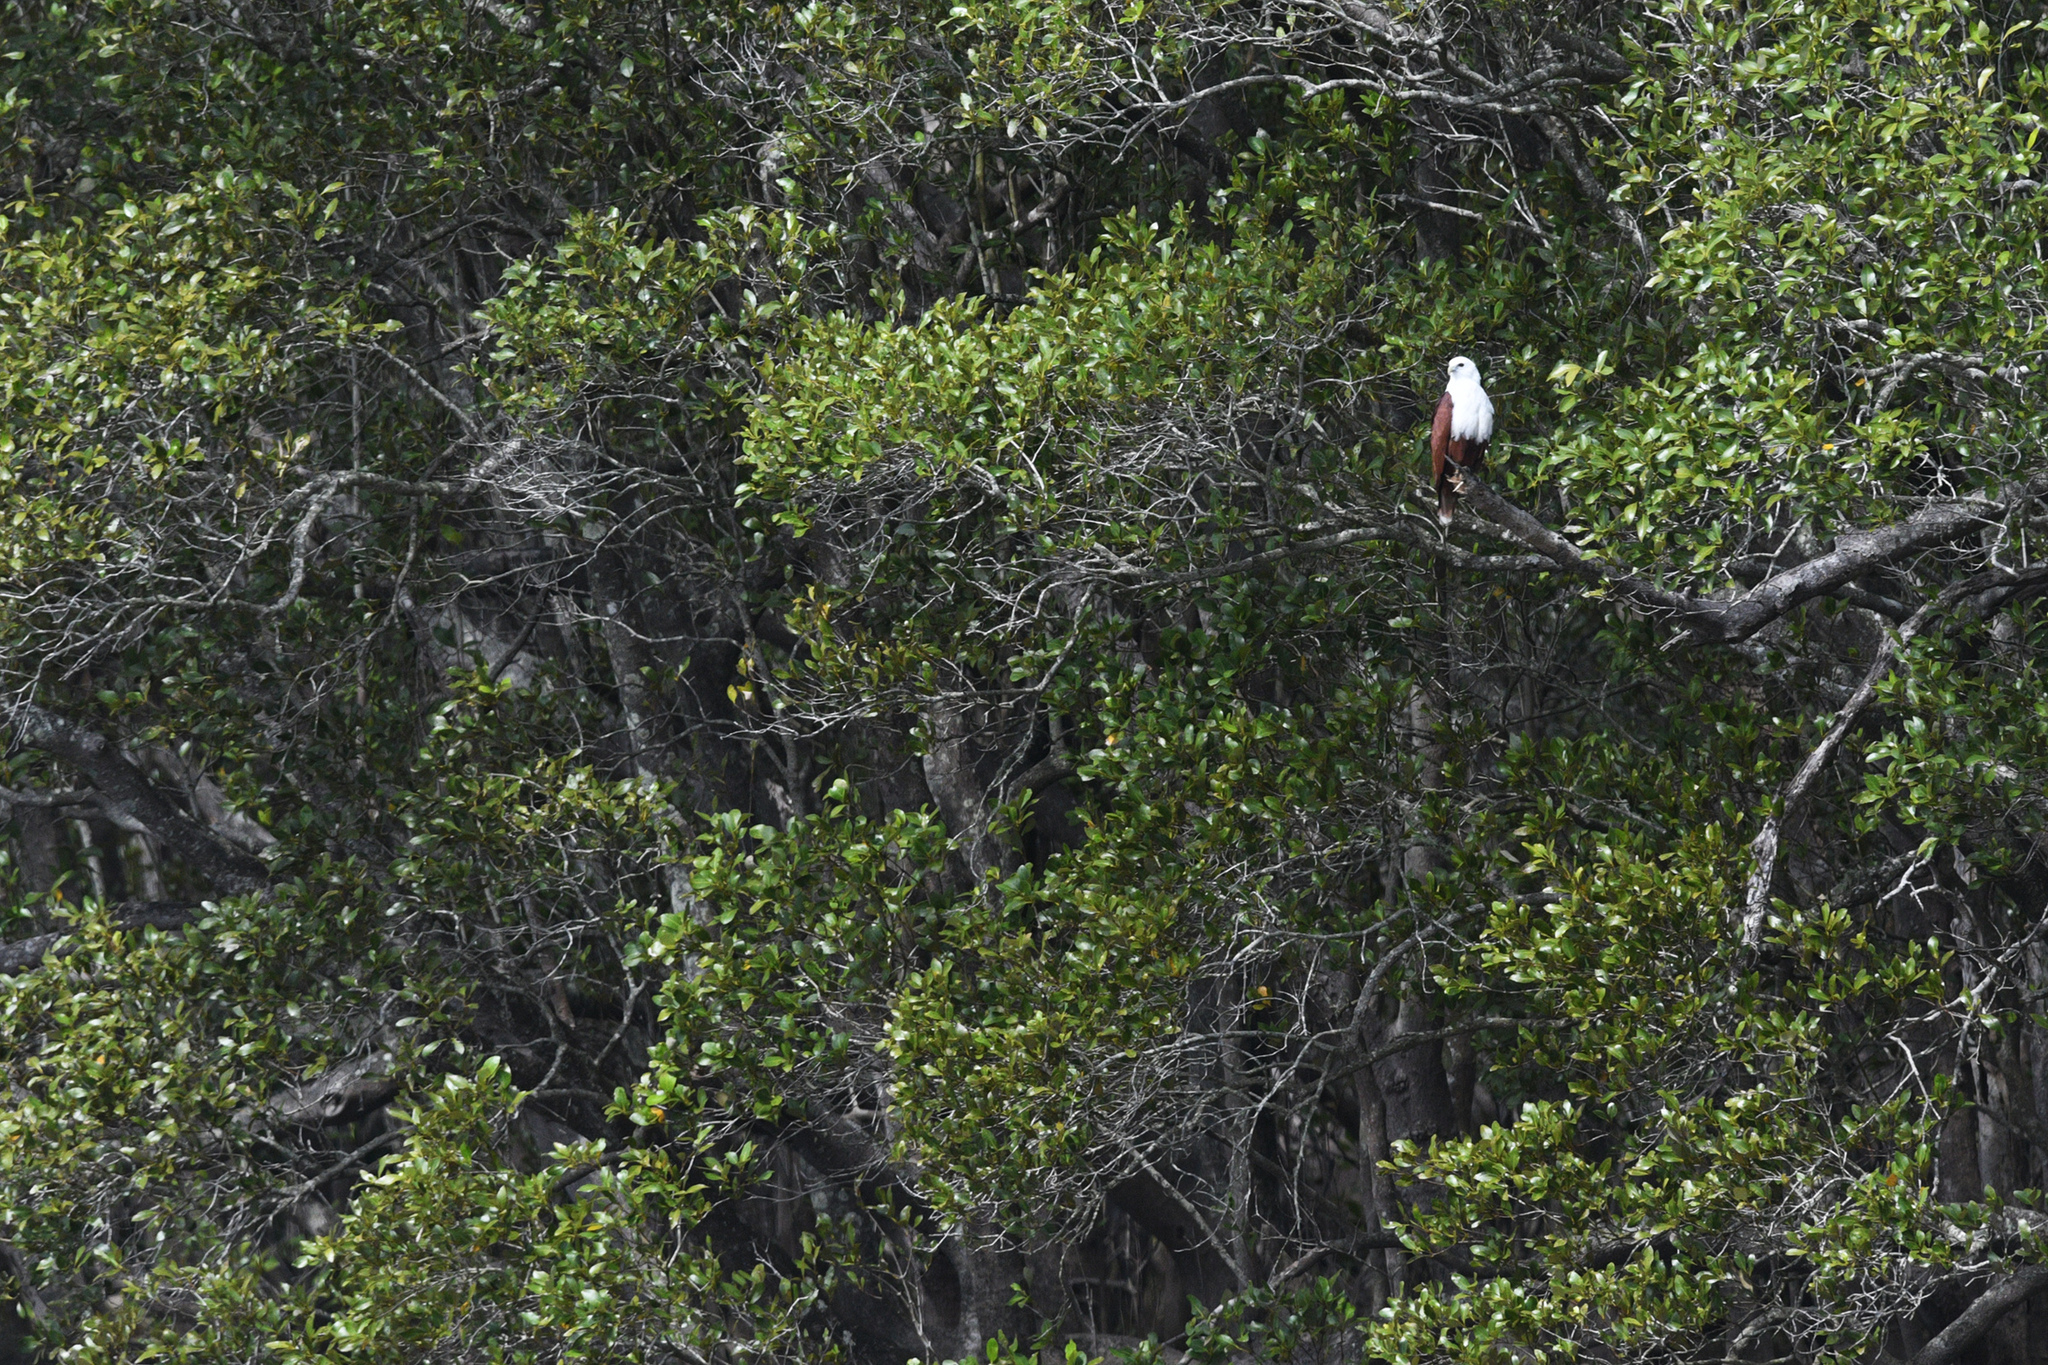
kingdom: Animalia
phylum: Chordata
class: Aves
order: Accipitriformes
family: Accipitridae
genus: Haliastur
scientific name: Haliastur indus
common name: Brahminy kite
